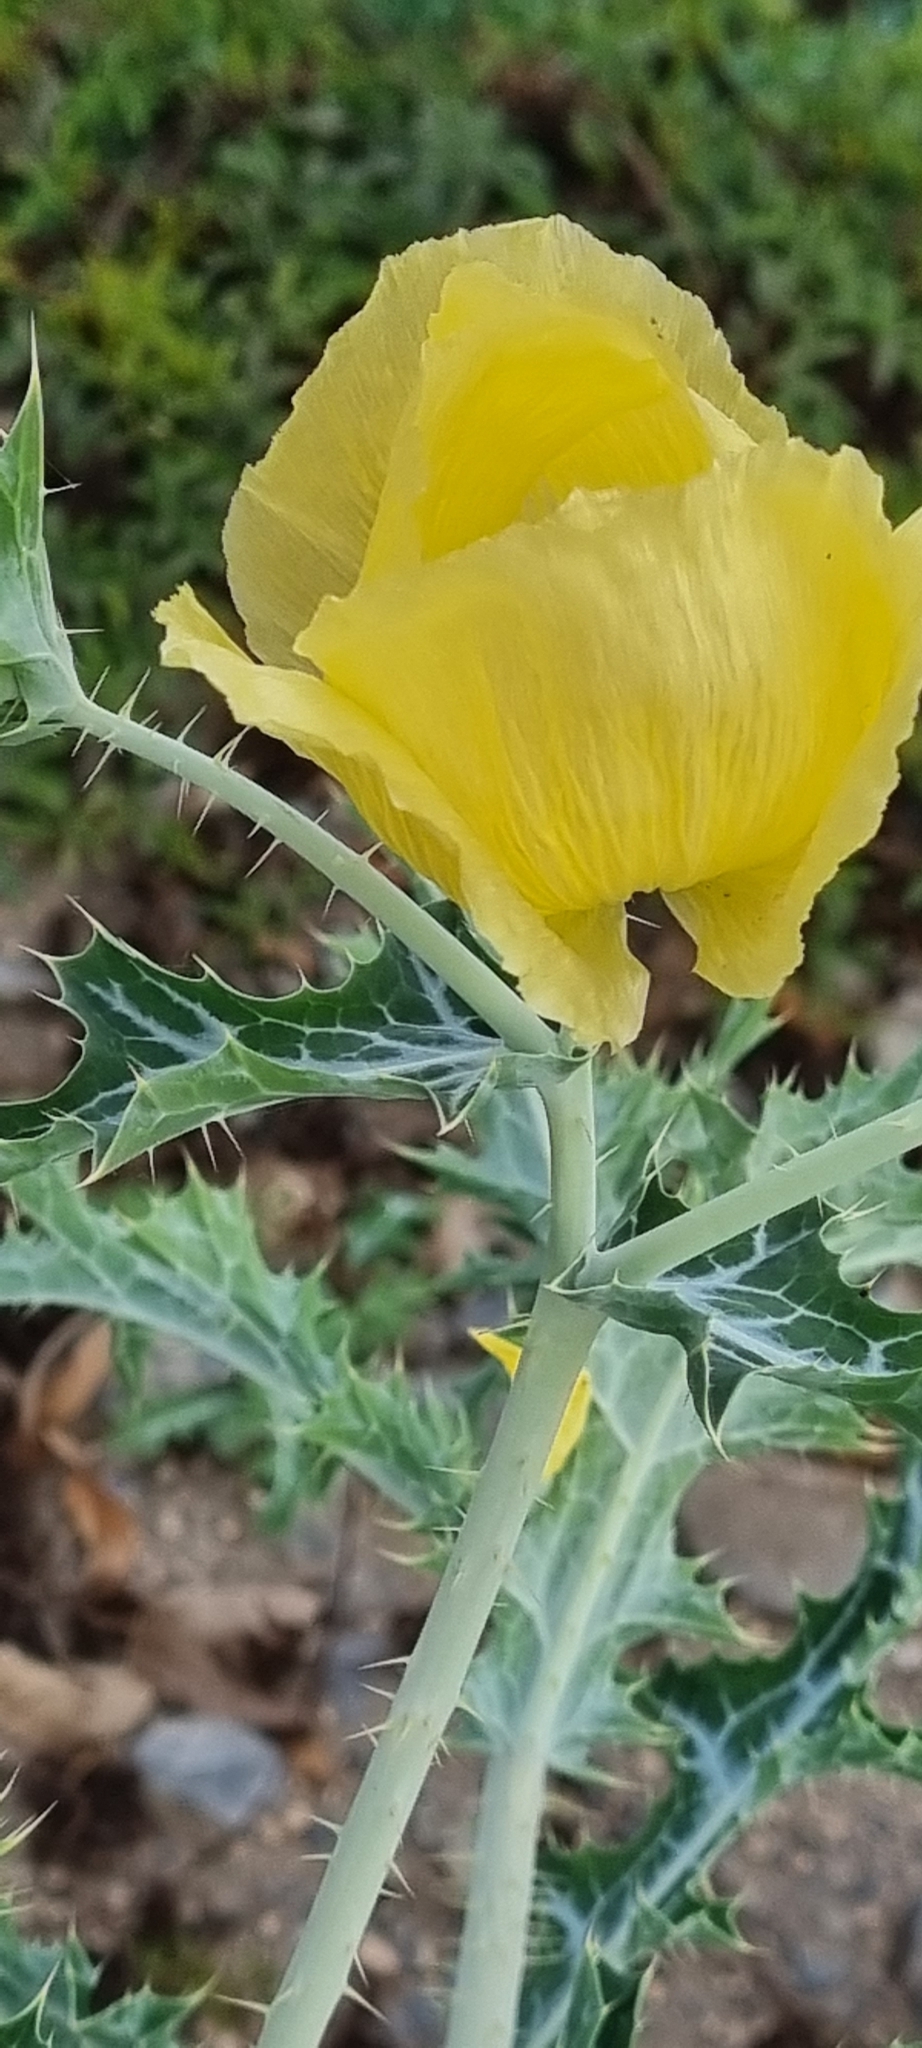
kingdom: Plantae
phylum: Tracheophyta
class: Magnoliopsida
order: Ranunculales
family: Papaveraceae
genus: Argemone
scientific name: Argemone aenea
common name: Golden prickly-poppy
